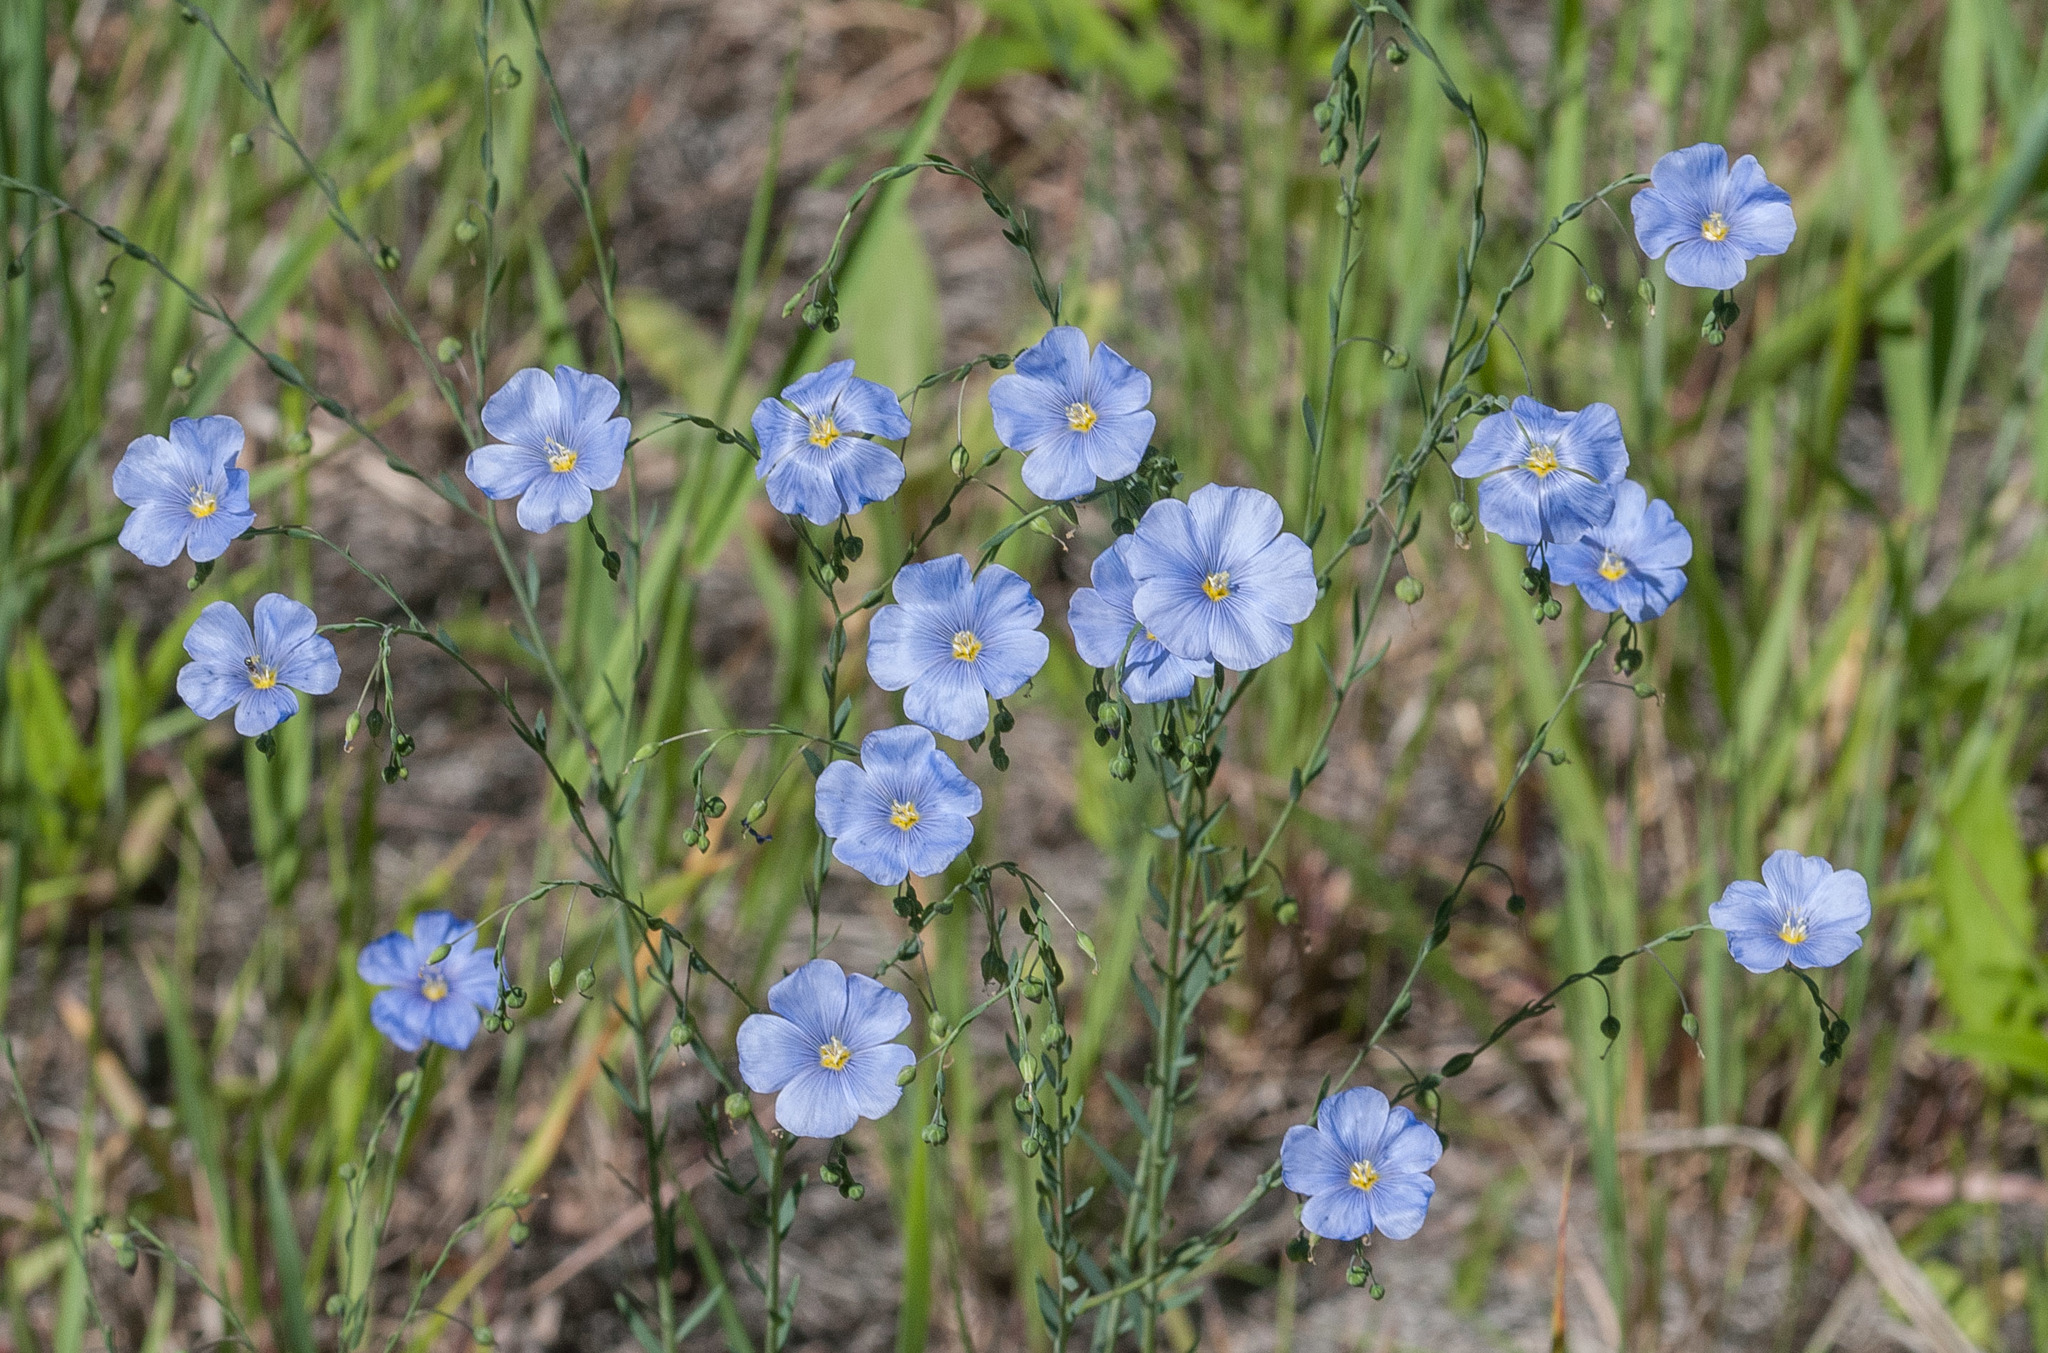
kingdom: Plantae
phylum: Tracheophyta
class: Magnoliopsida
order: Malpighiales
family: Linaceae
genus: Linum
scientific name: Linum lewisii
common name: Prairie flax
